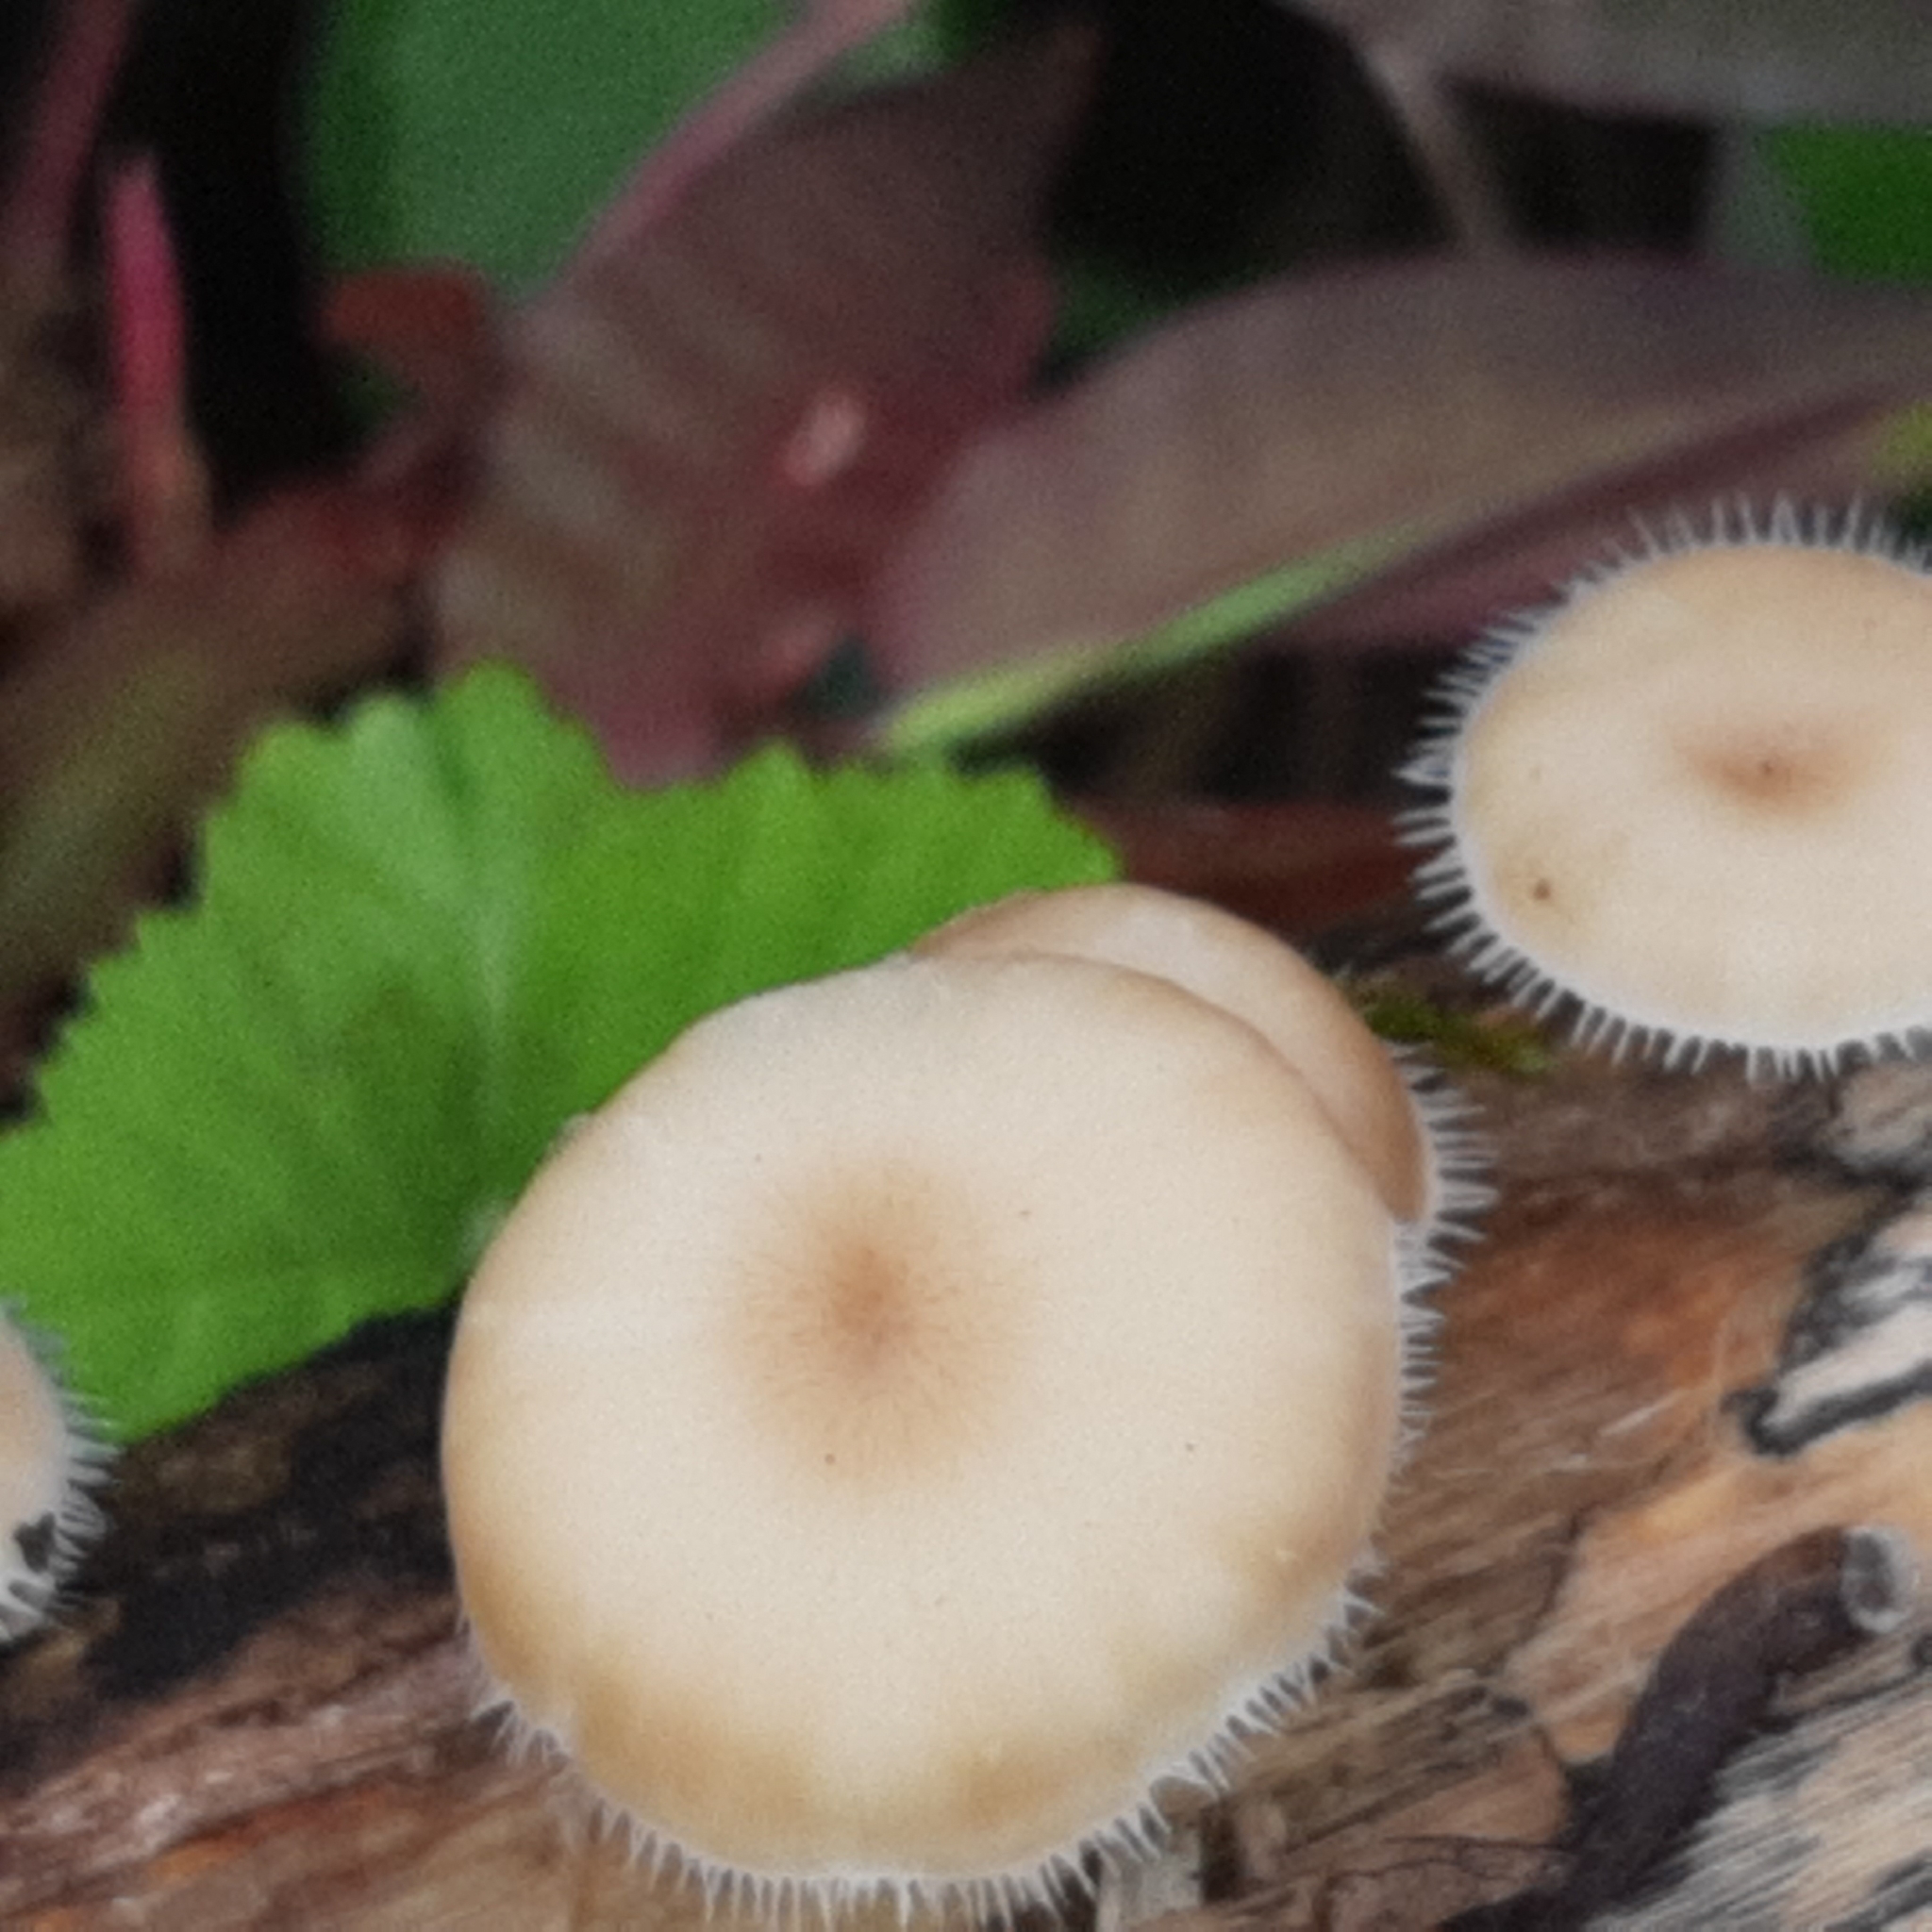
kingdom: Fungi
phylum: Basidiomycota
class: Agaricomycetes
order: Polyporales
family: Polyporaceae
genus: Lentinus
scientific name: Lentinus flexipes
